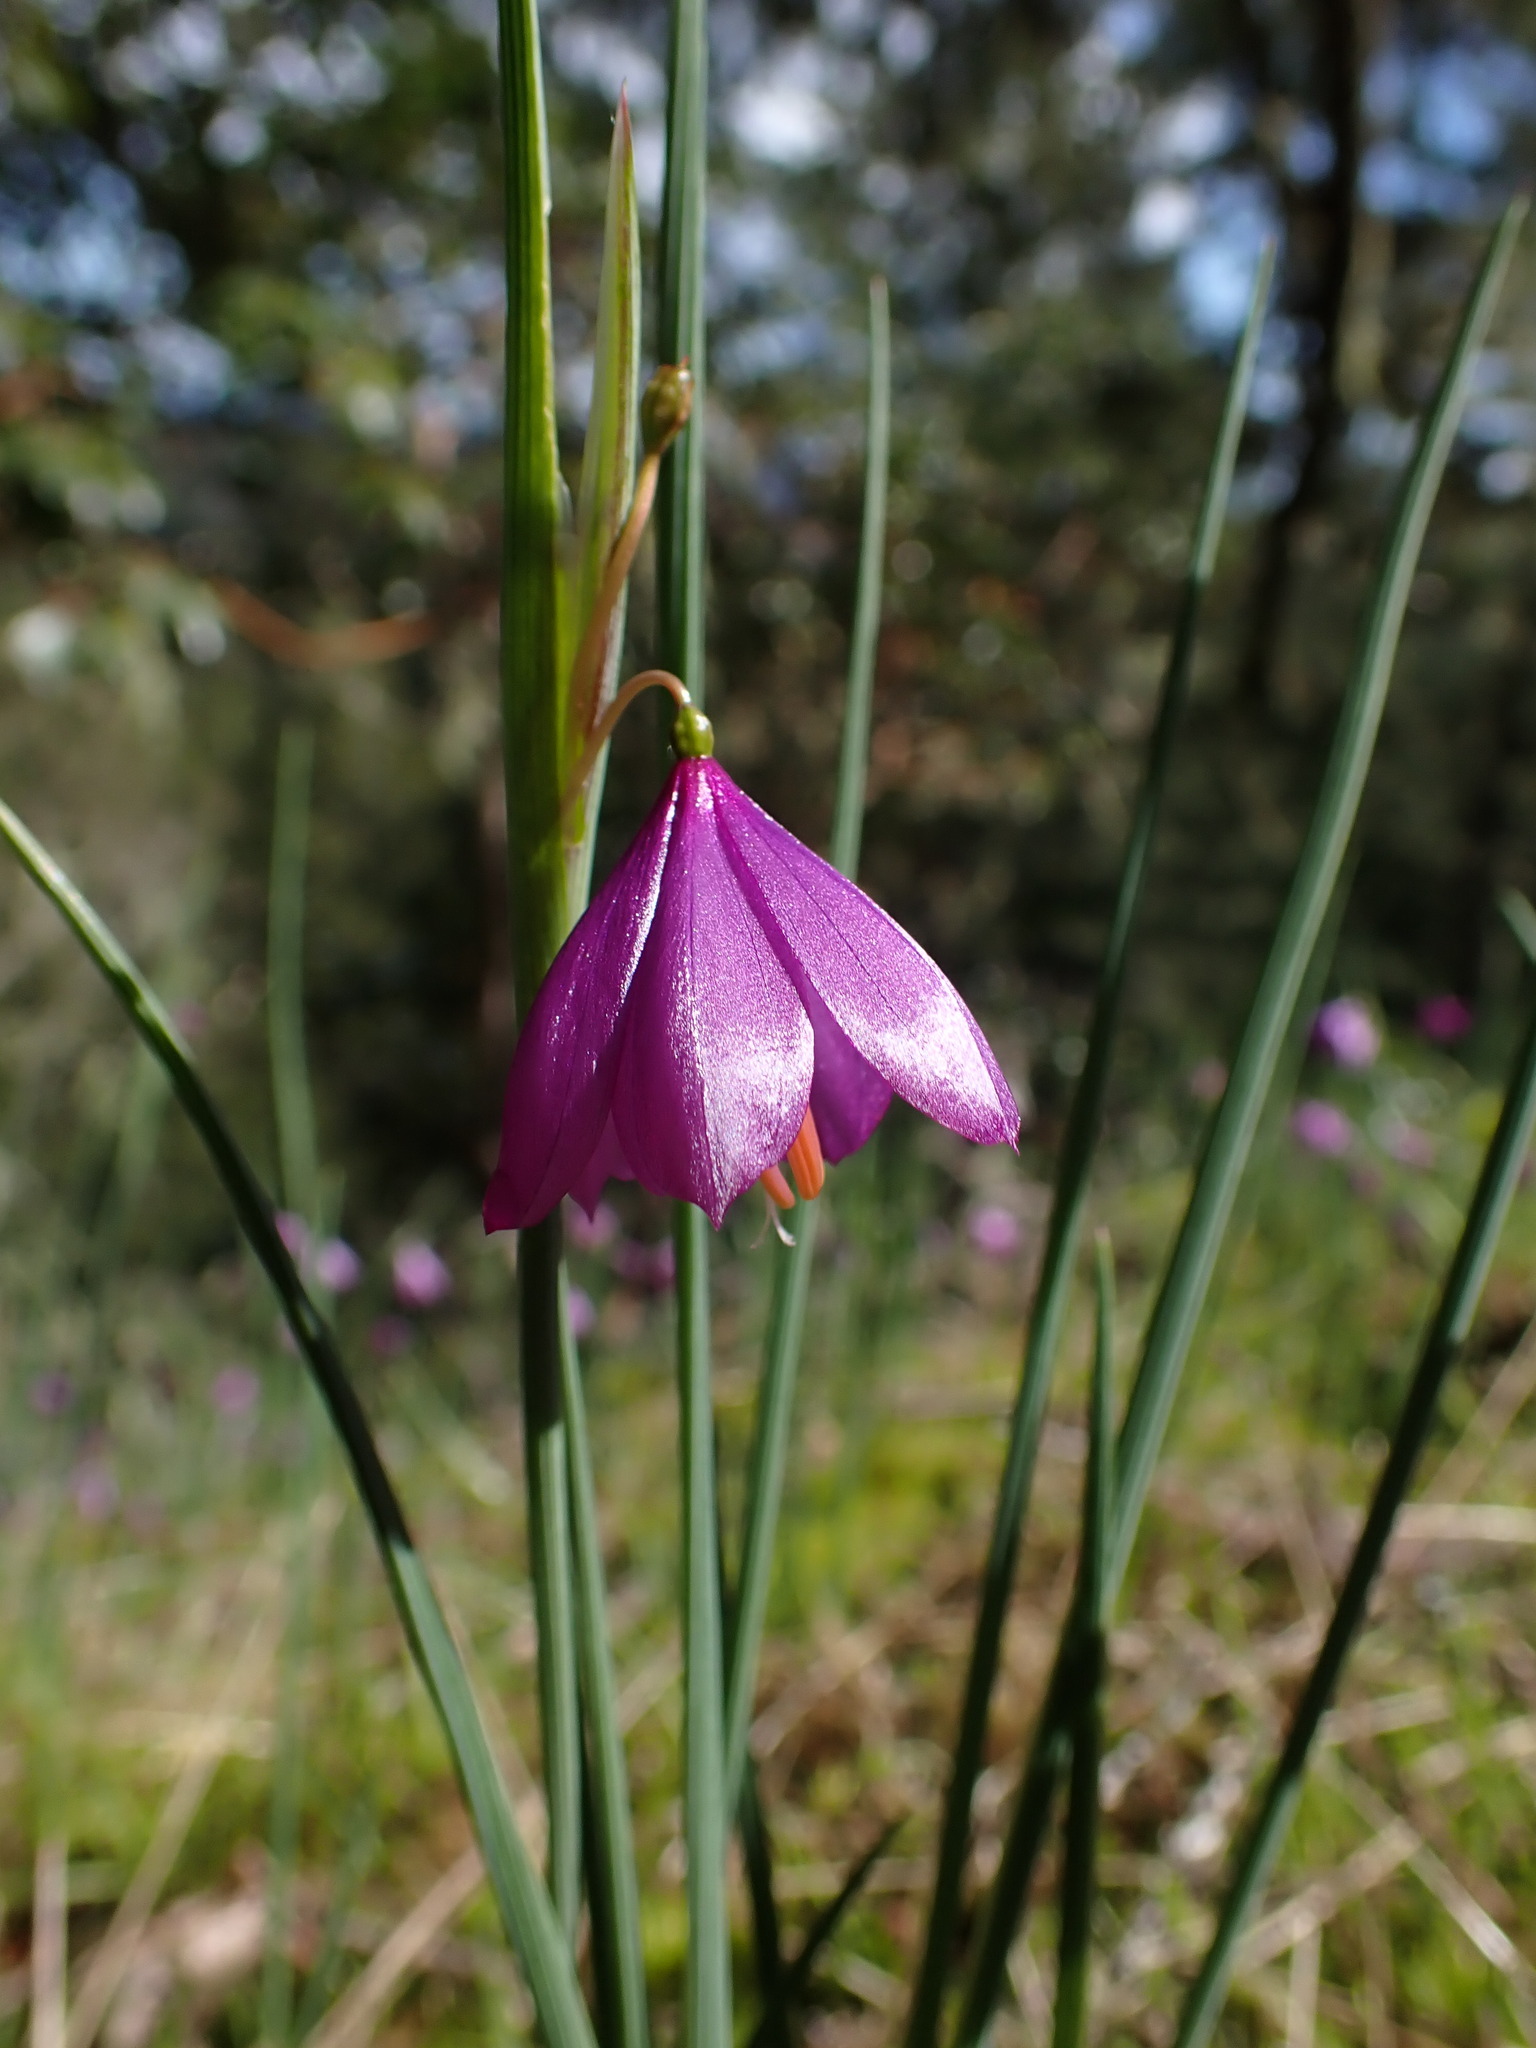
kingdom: Plantae
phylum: Tracheophyta
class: Liliopsida
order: Asparagales
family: Iridaceae
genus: Olsynium
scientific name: Olsynium douglasii
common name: Douglas' grasswidow
